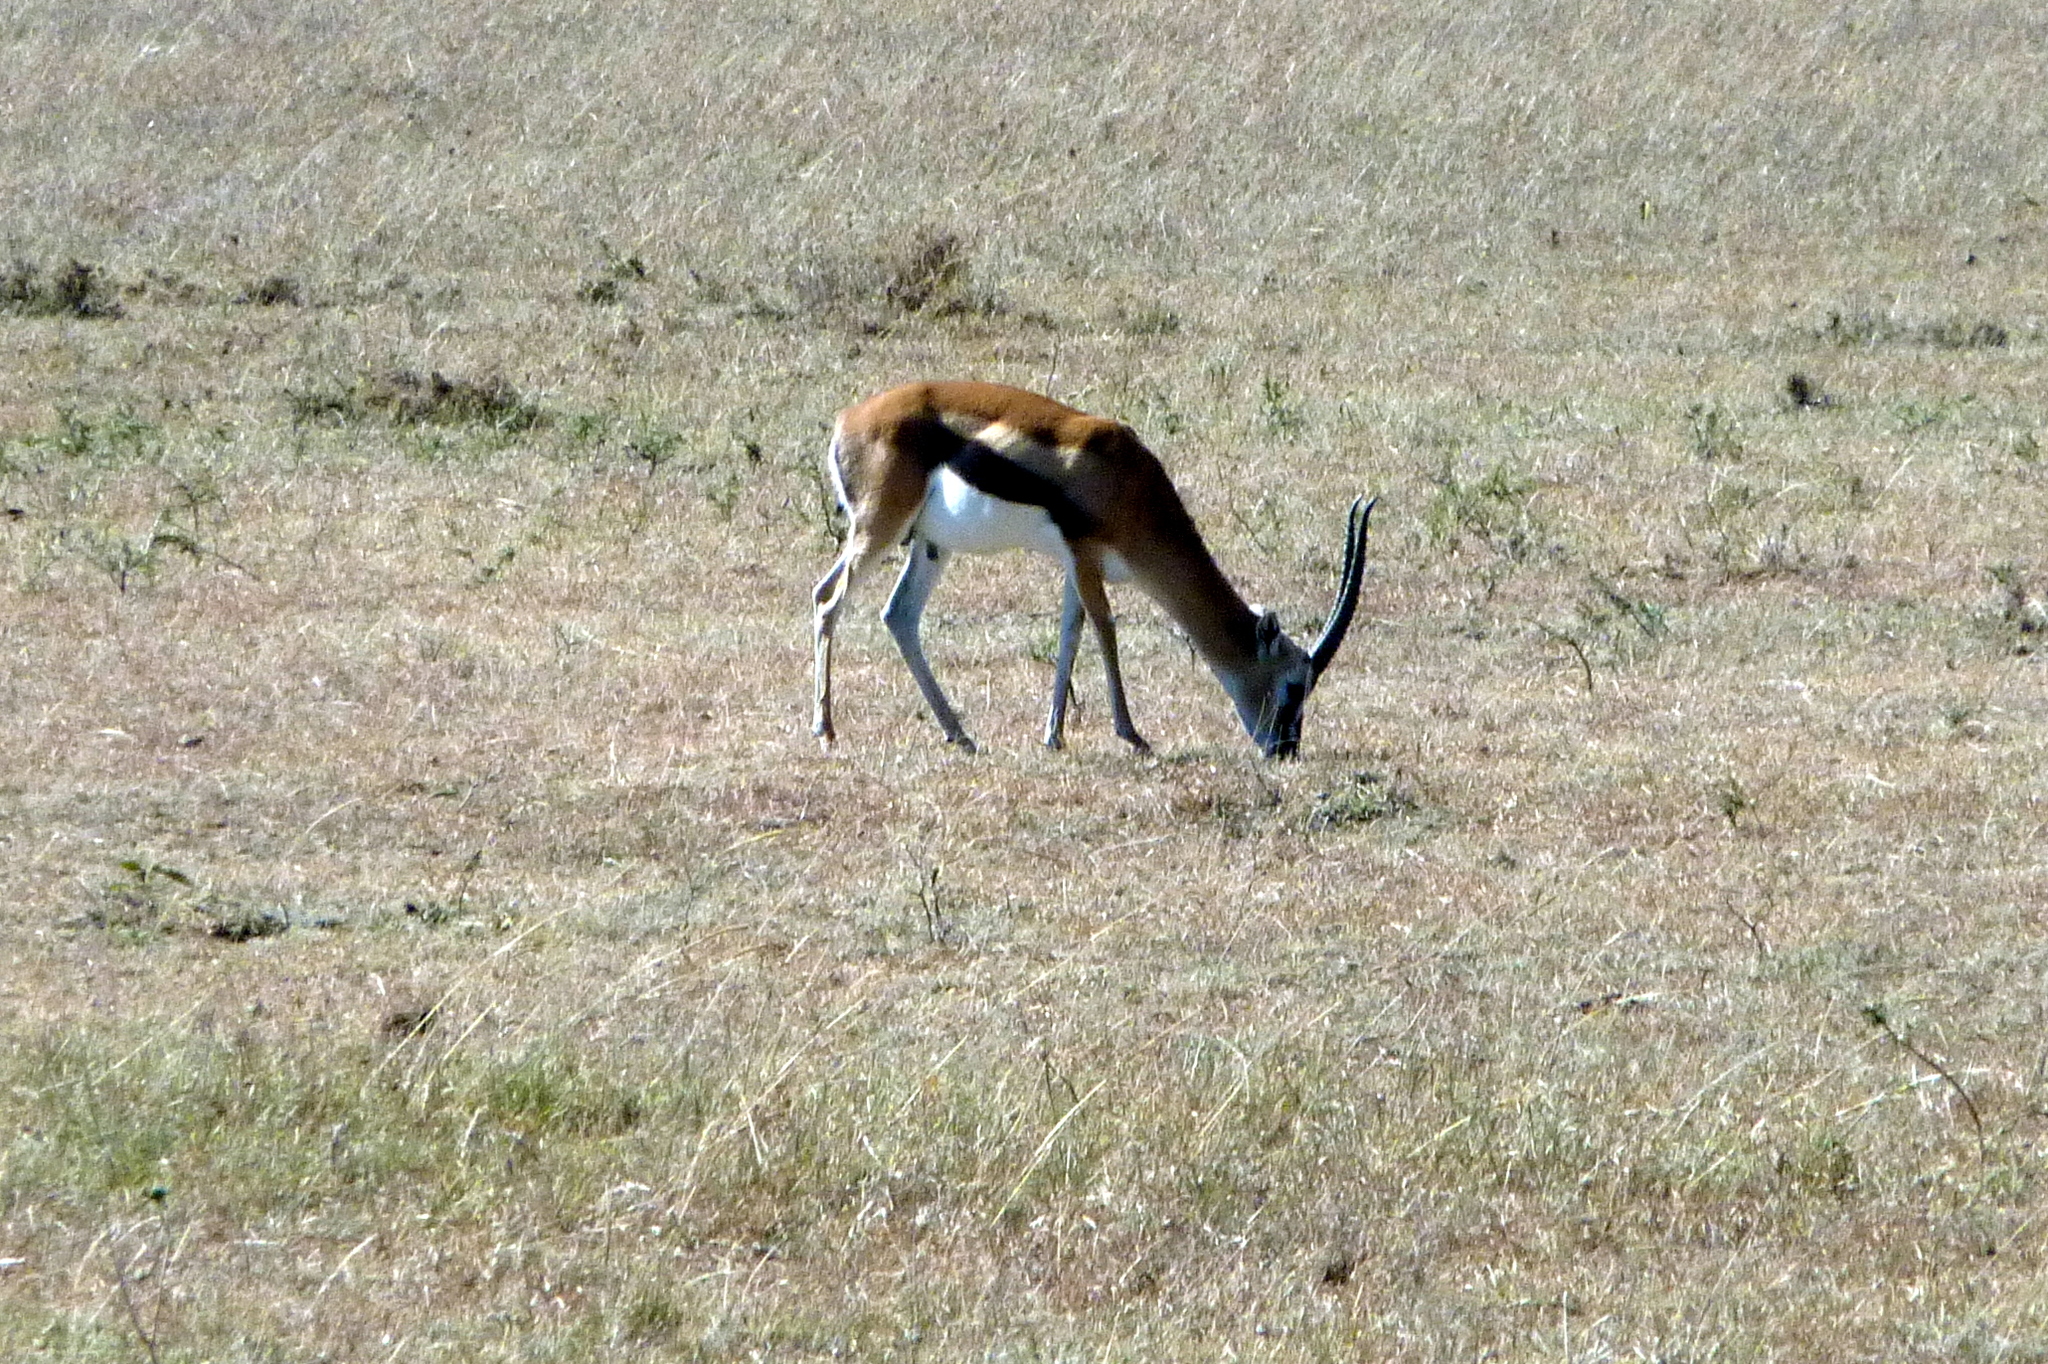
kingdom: Animalia
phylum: Chordata
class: Mammalia
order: Artiodactyla
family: Bovidae
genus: Eudorcas
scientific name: Eudorcas thomsonii
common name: Thomson's gazelle
